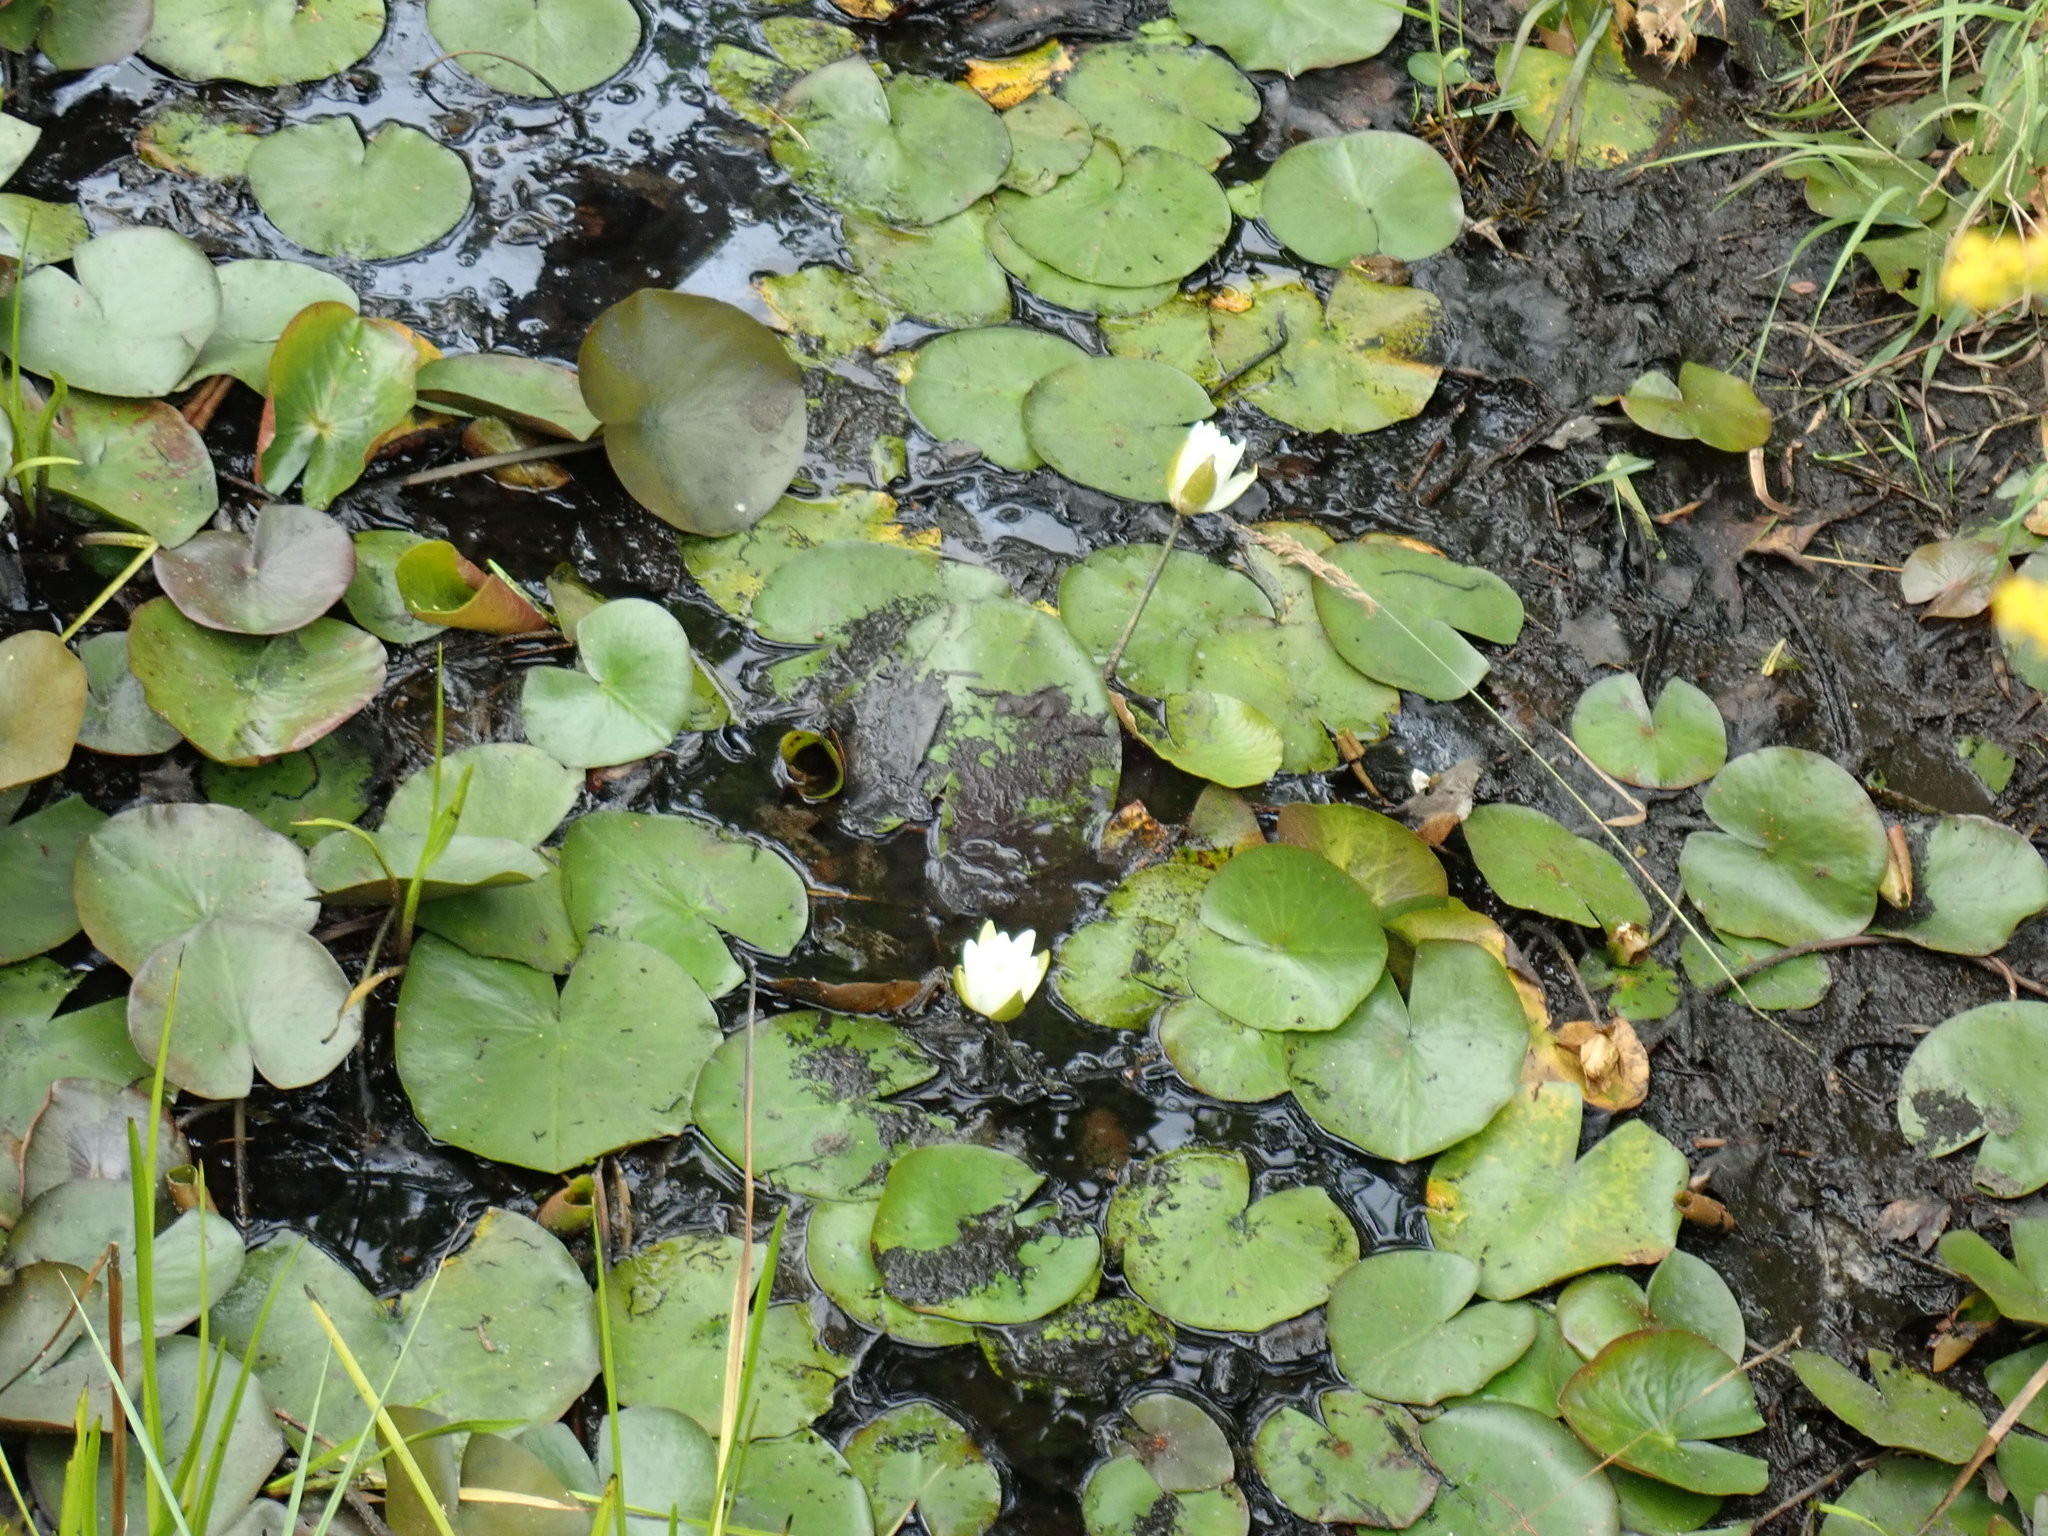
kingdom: Plantae
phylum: Tracheophyta
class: Magnoliopsida
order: Nymphaeales
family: Nymphaeaceae
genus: Nymphaea
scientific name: Nymphaea odorata
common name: Fragrant water-lily
